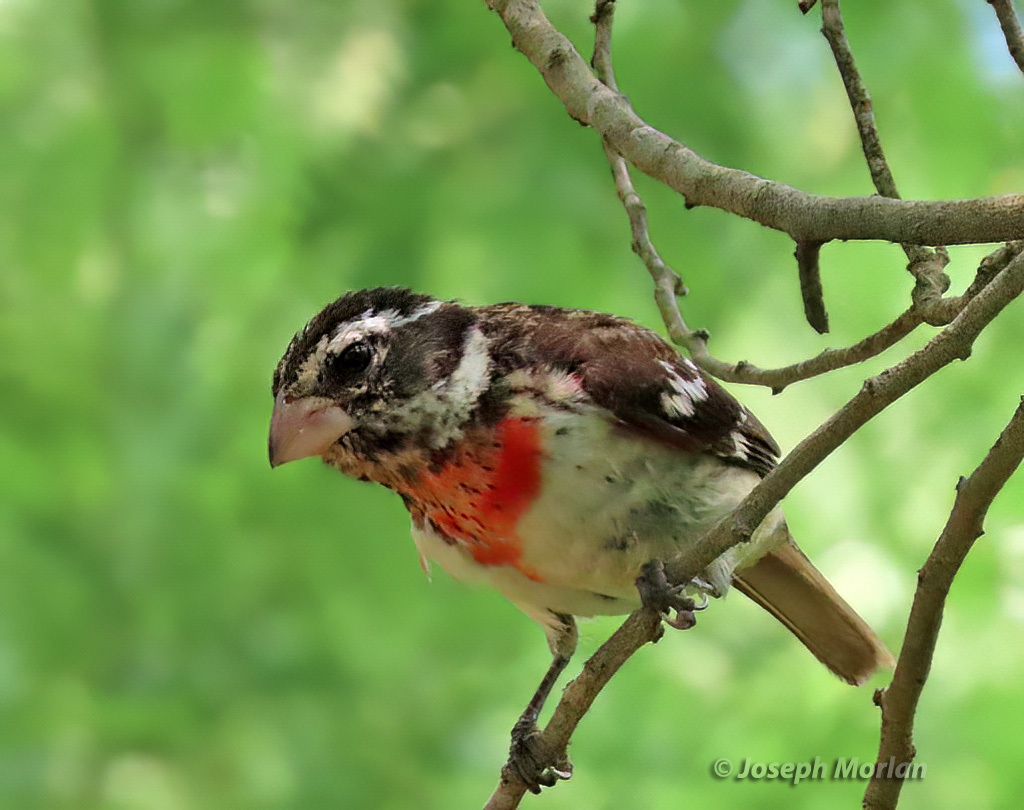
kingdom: Animalia
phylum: Chordata
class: Aves
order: Passeriformes
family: Cardinalidae
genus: Pheucticus
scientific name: Pheucticus ludovicianus
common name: Rose-breasted grosbeak
